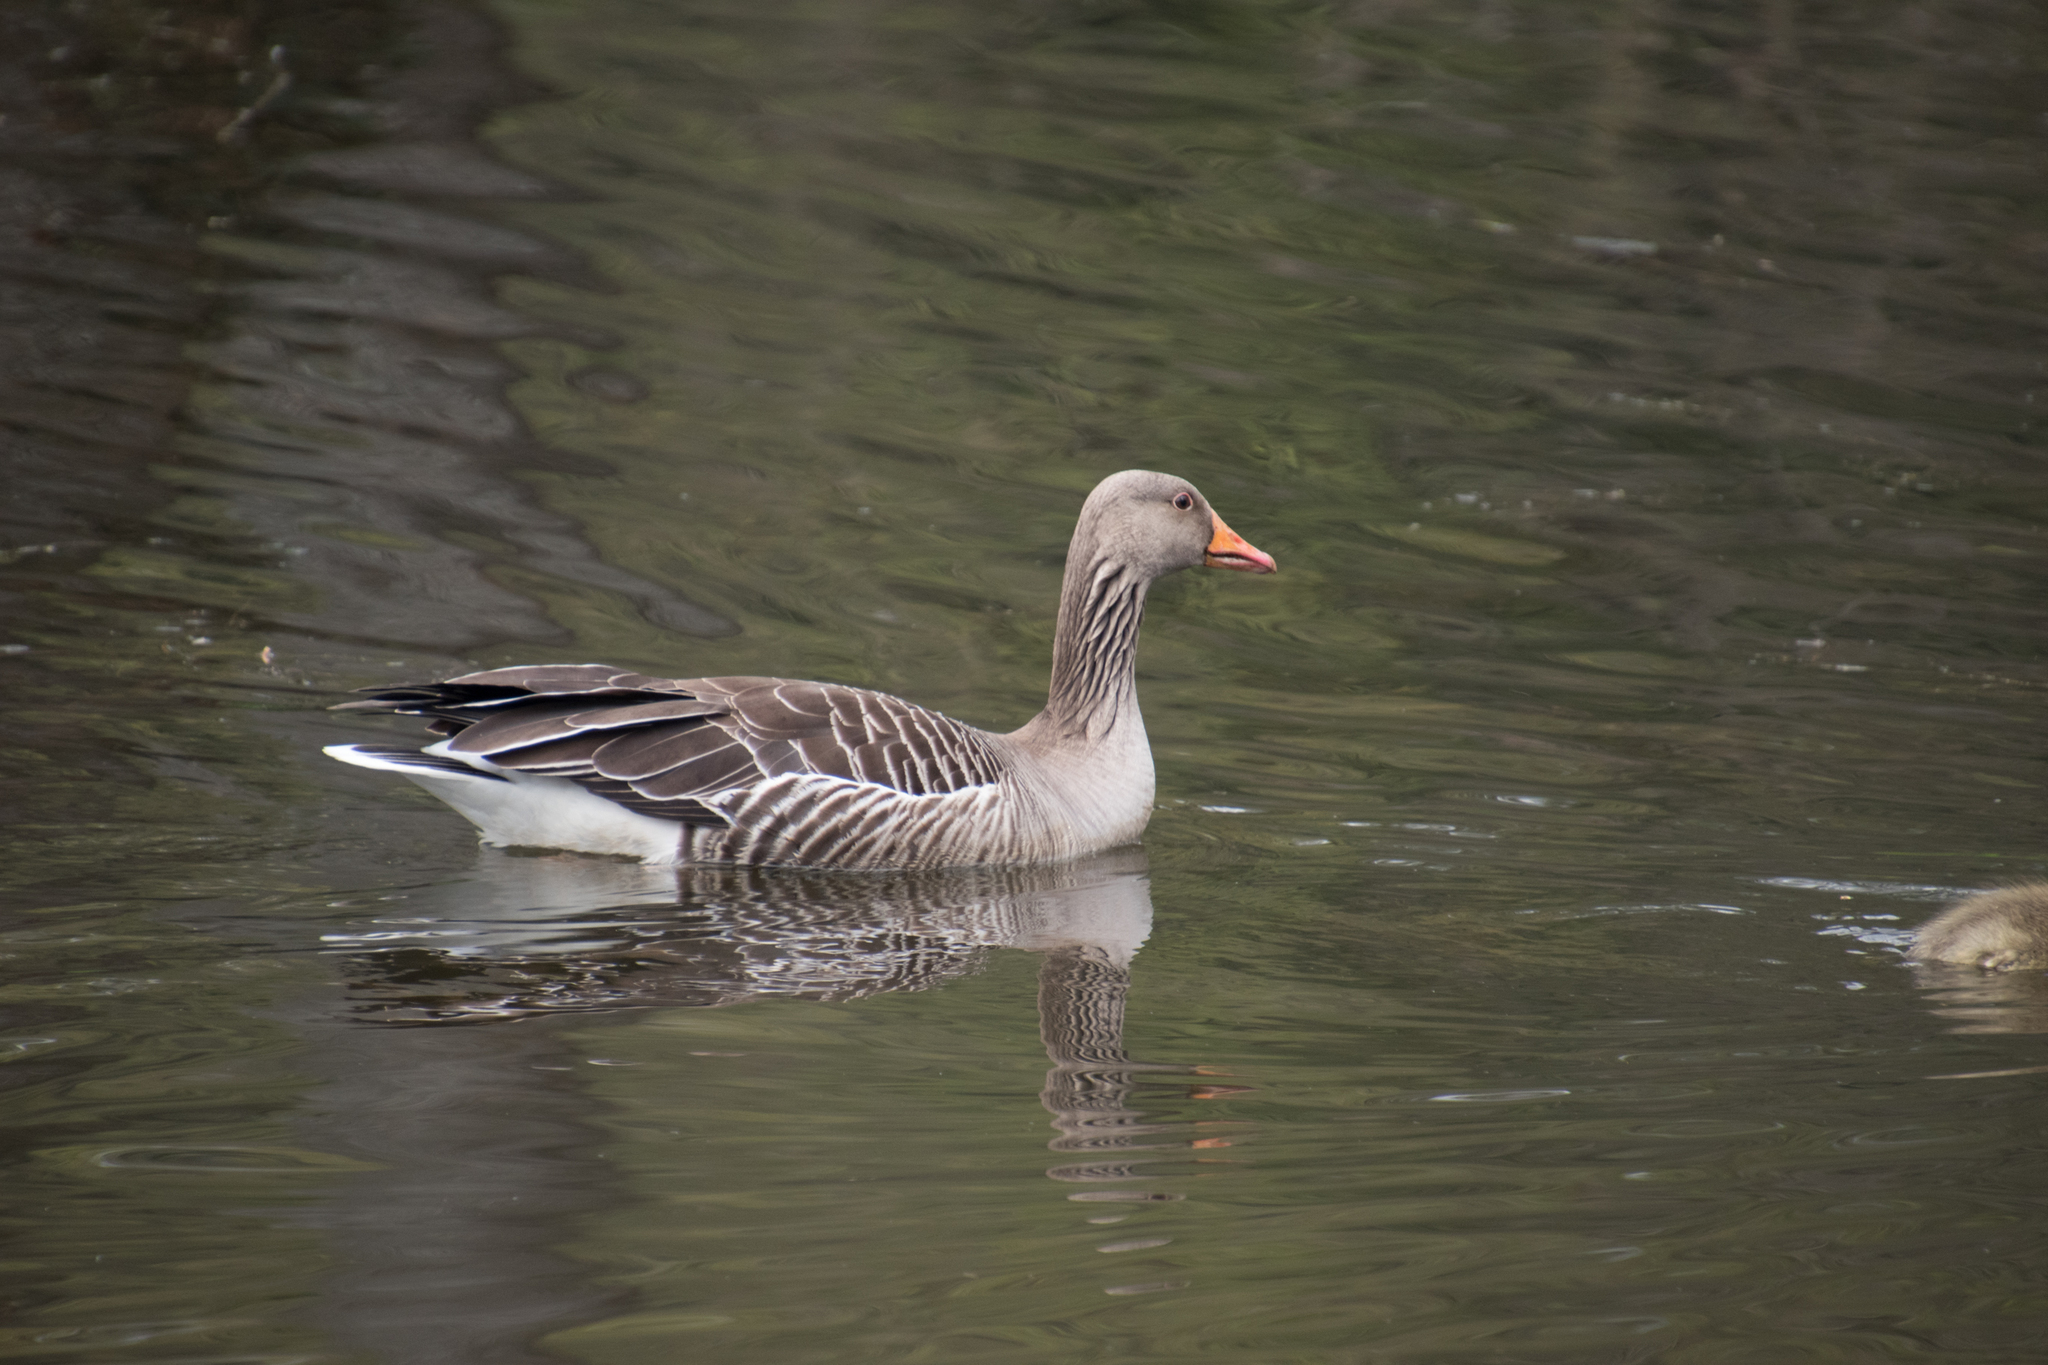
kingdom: Animalia
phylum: Chordata
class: Aves
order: Anseriformes
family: Anatidae
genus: Anser
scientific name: Anser anser
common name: Greylag goose
